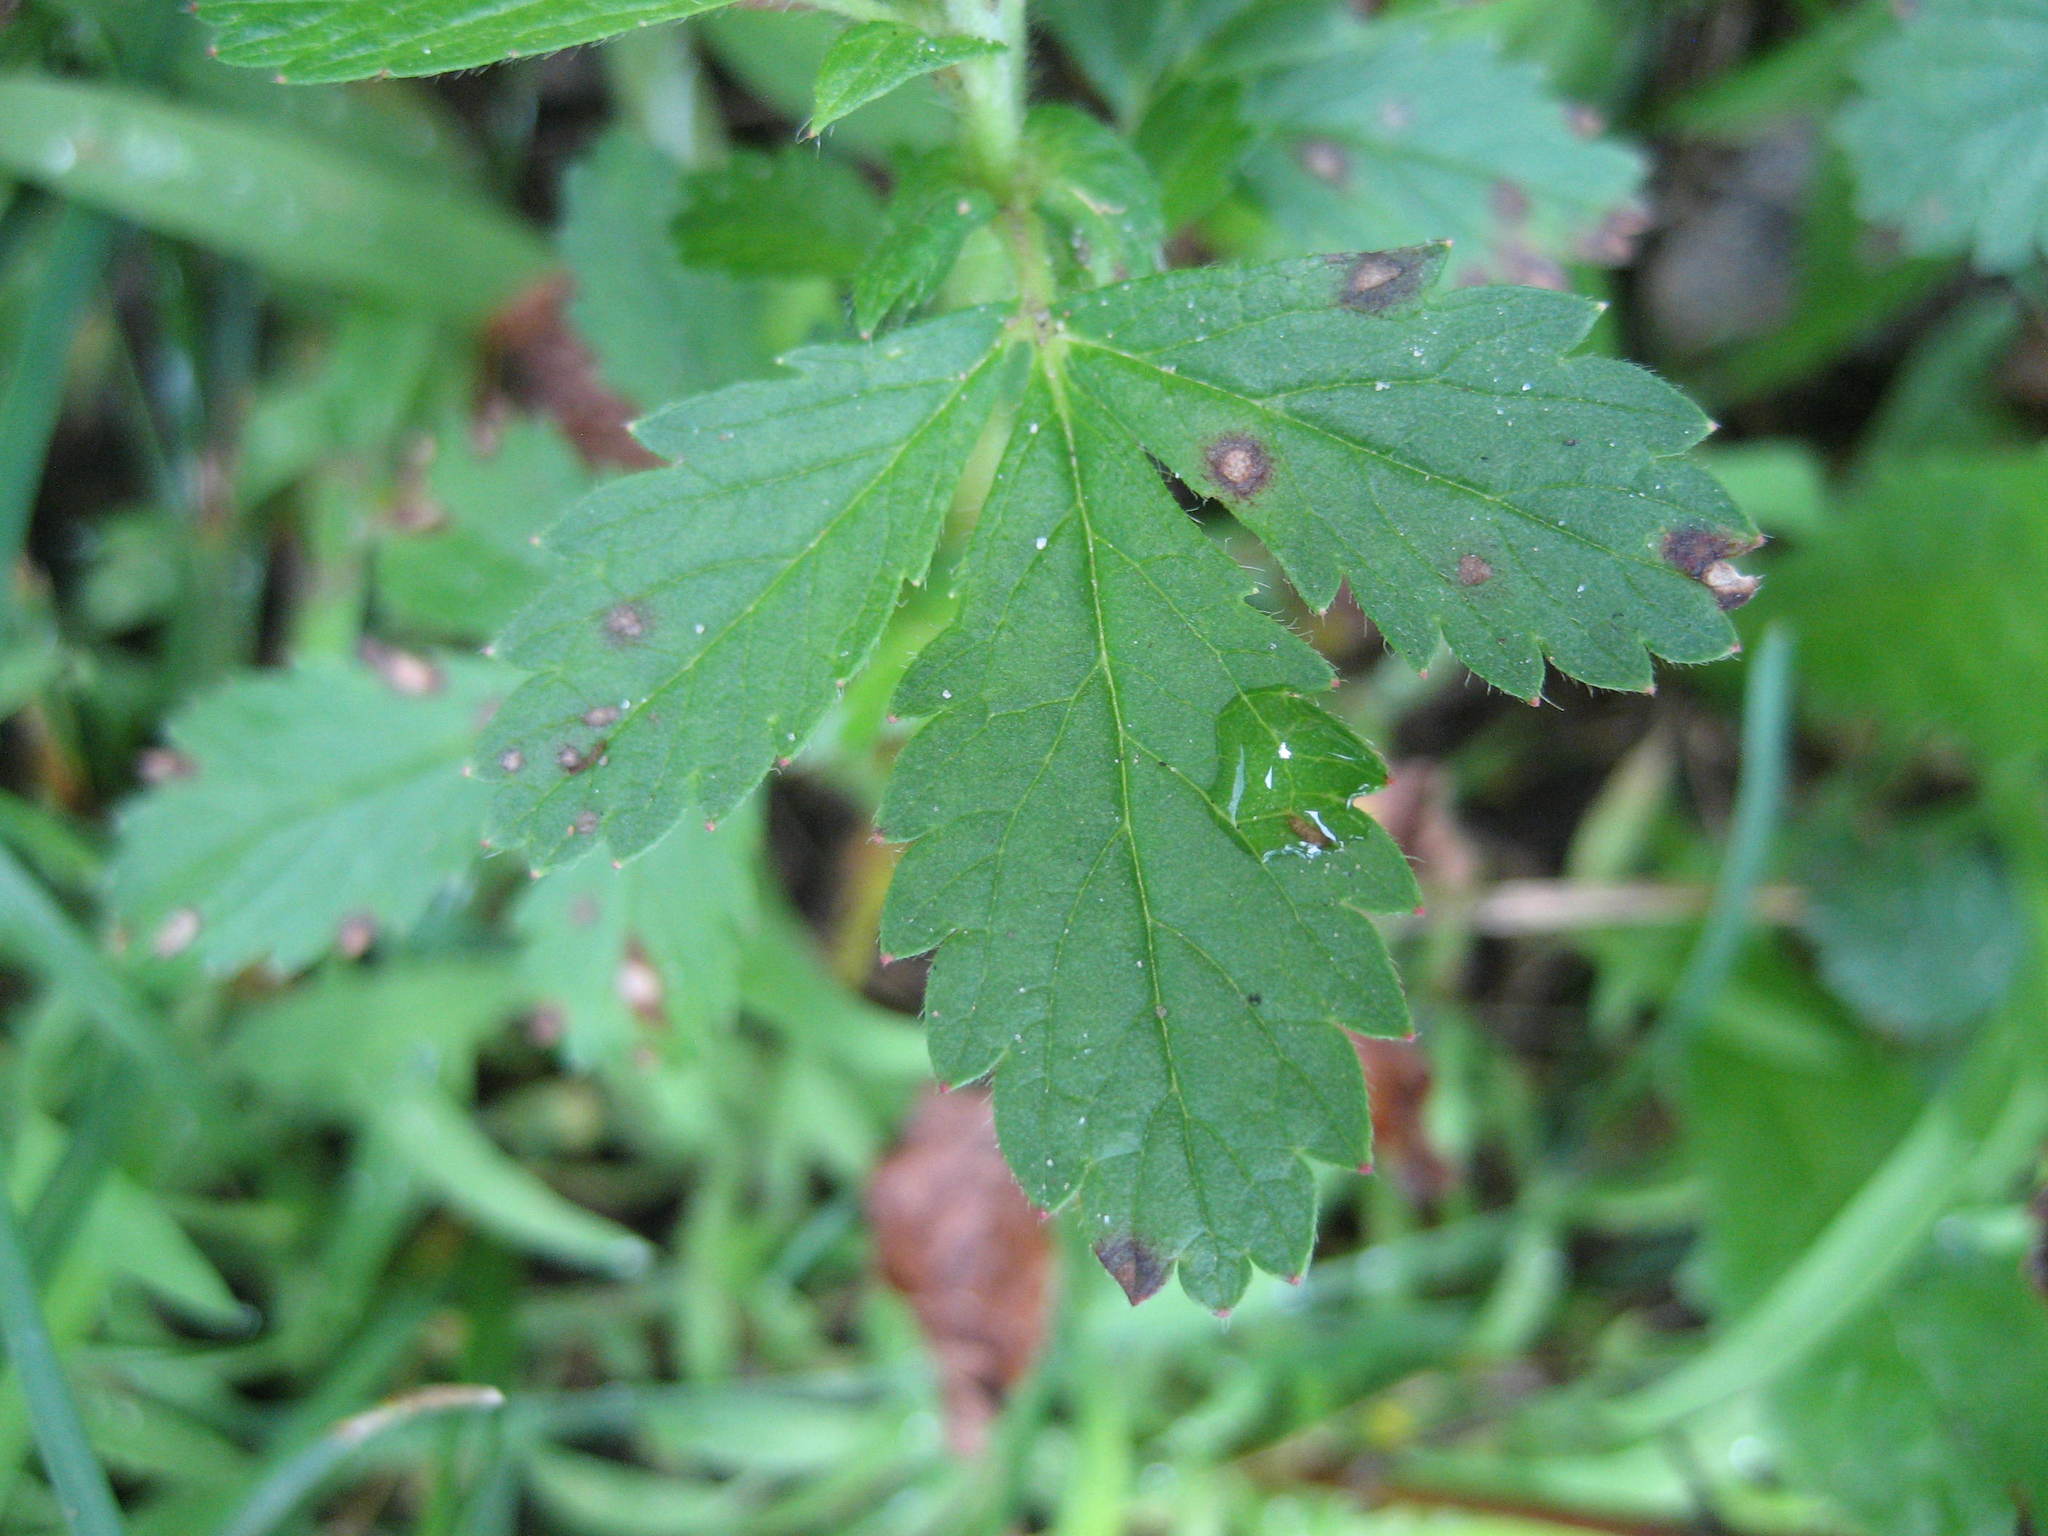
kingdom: Plantae
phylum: Tracheophyta
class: Magnoliopsida
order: Rosales
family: Rosaceae
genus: Potentilla
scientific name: Potentilla norvegica
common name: Ternate-leaved cinquefoil
